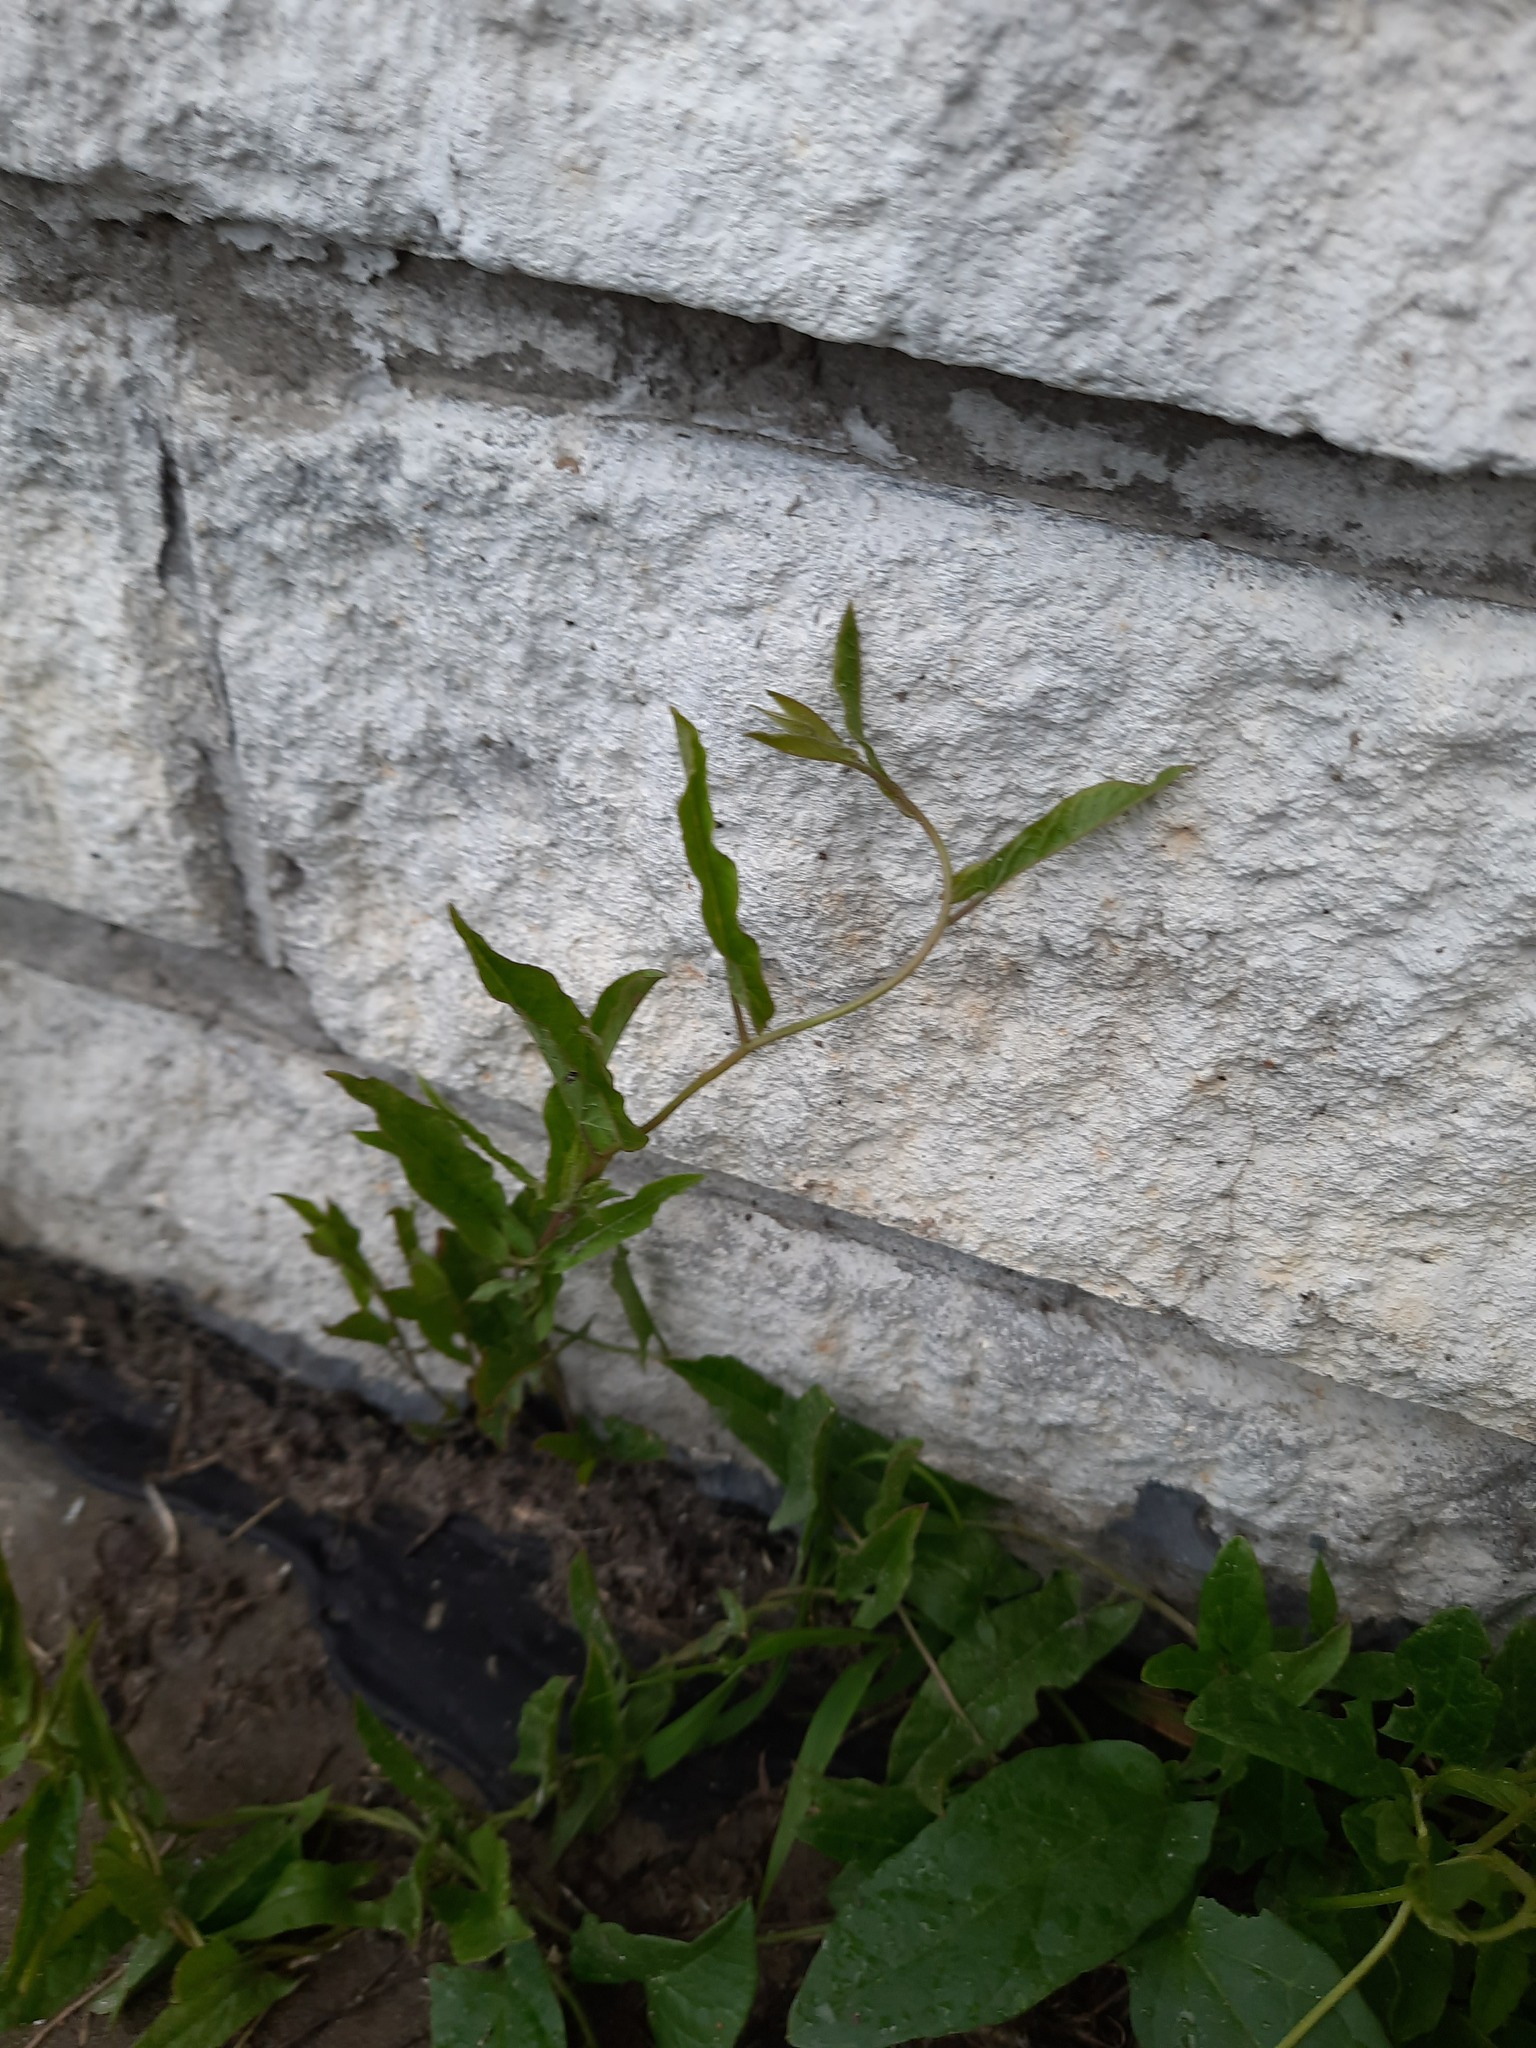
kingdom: Plantae
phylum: Tracheophyta
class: Magnoliopsida
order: Solanales
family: Convolvulaceae
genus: Convolvulus
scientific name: Convolvulus arvensis
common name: Field bindweed
